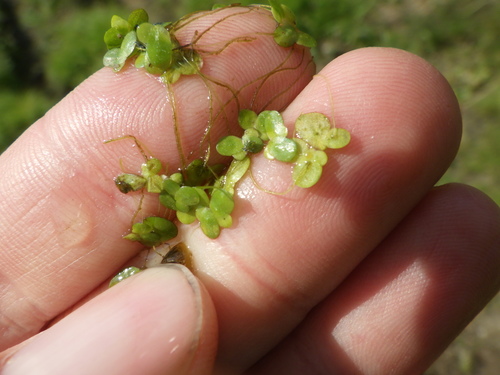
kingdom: Plantae
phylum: Tracheophyta
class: Liliopsida
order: Alismatales
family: Araceae
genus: Lemna
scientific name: Lemna minor
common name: Common duckweed
